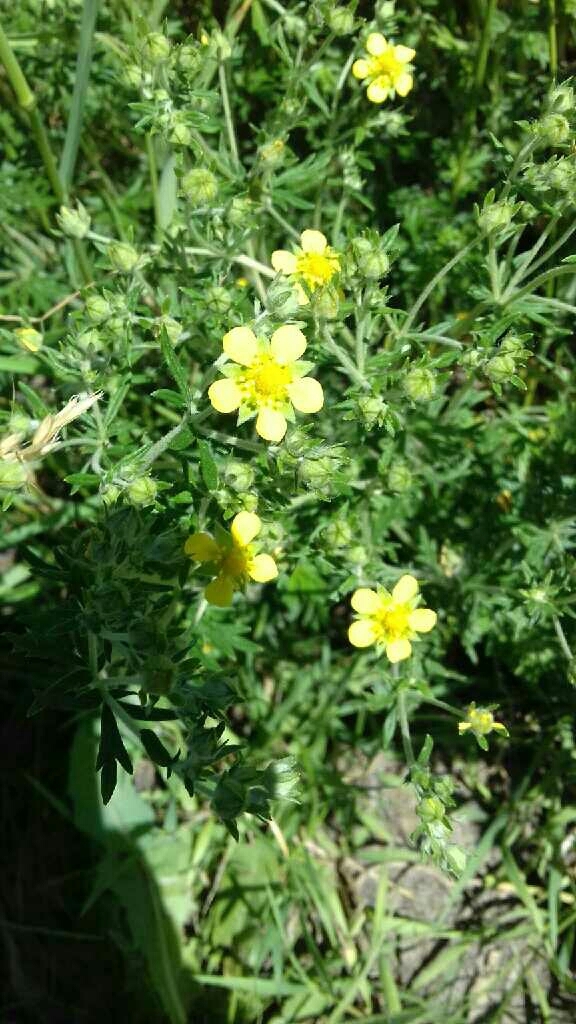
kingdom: Plantae
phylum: Tracheophyta
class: Magnoliopsida
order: Rosales
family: Rosaceae
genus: Potentilla
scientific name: Potentilla argentea
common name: Hoary cinquefoil
